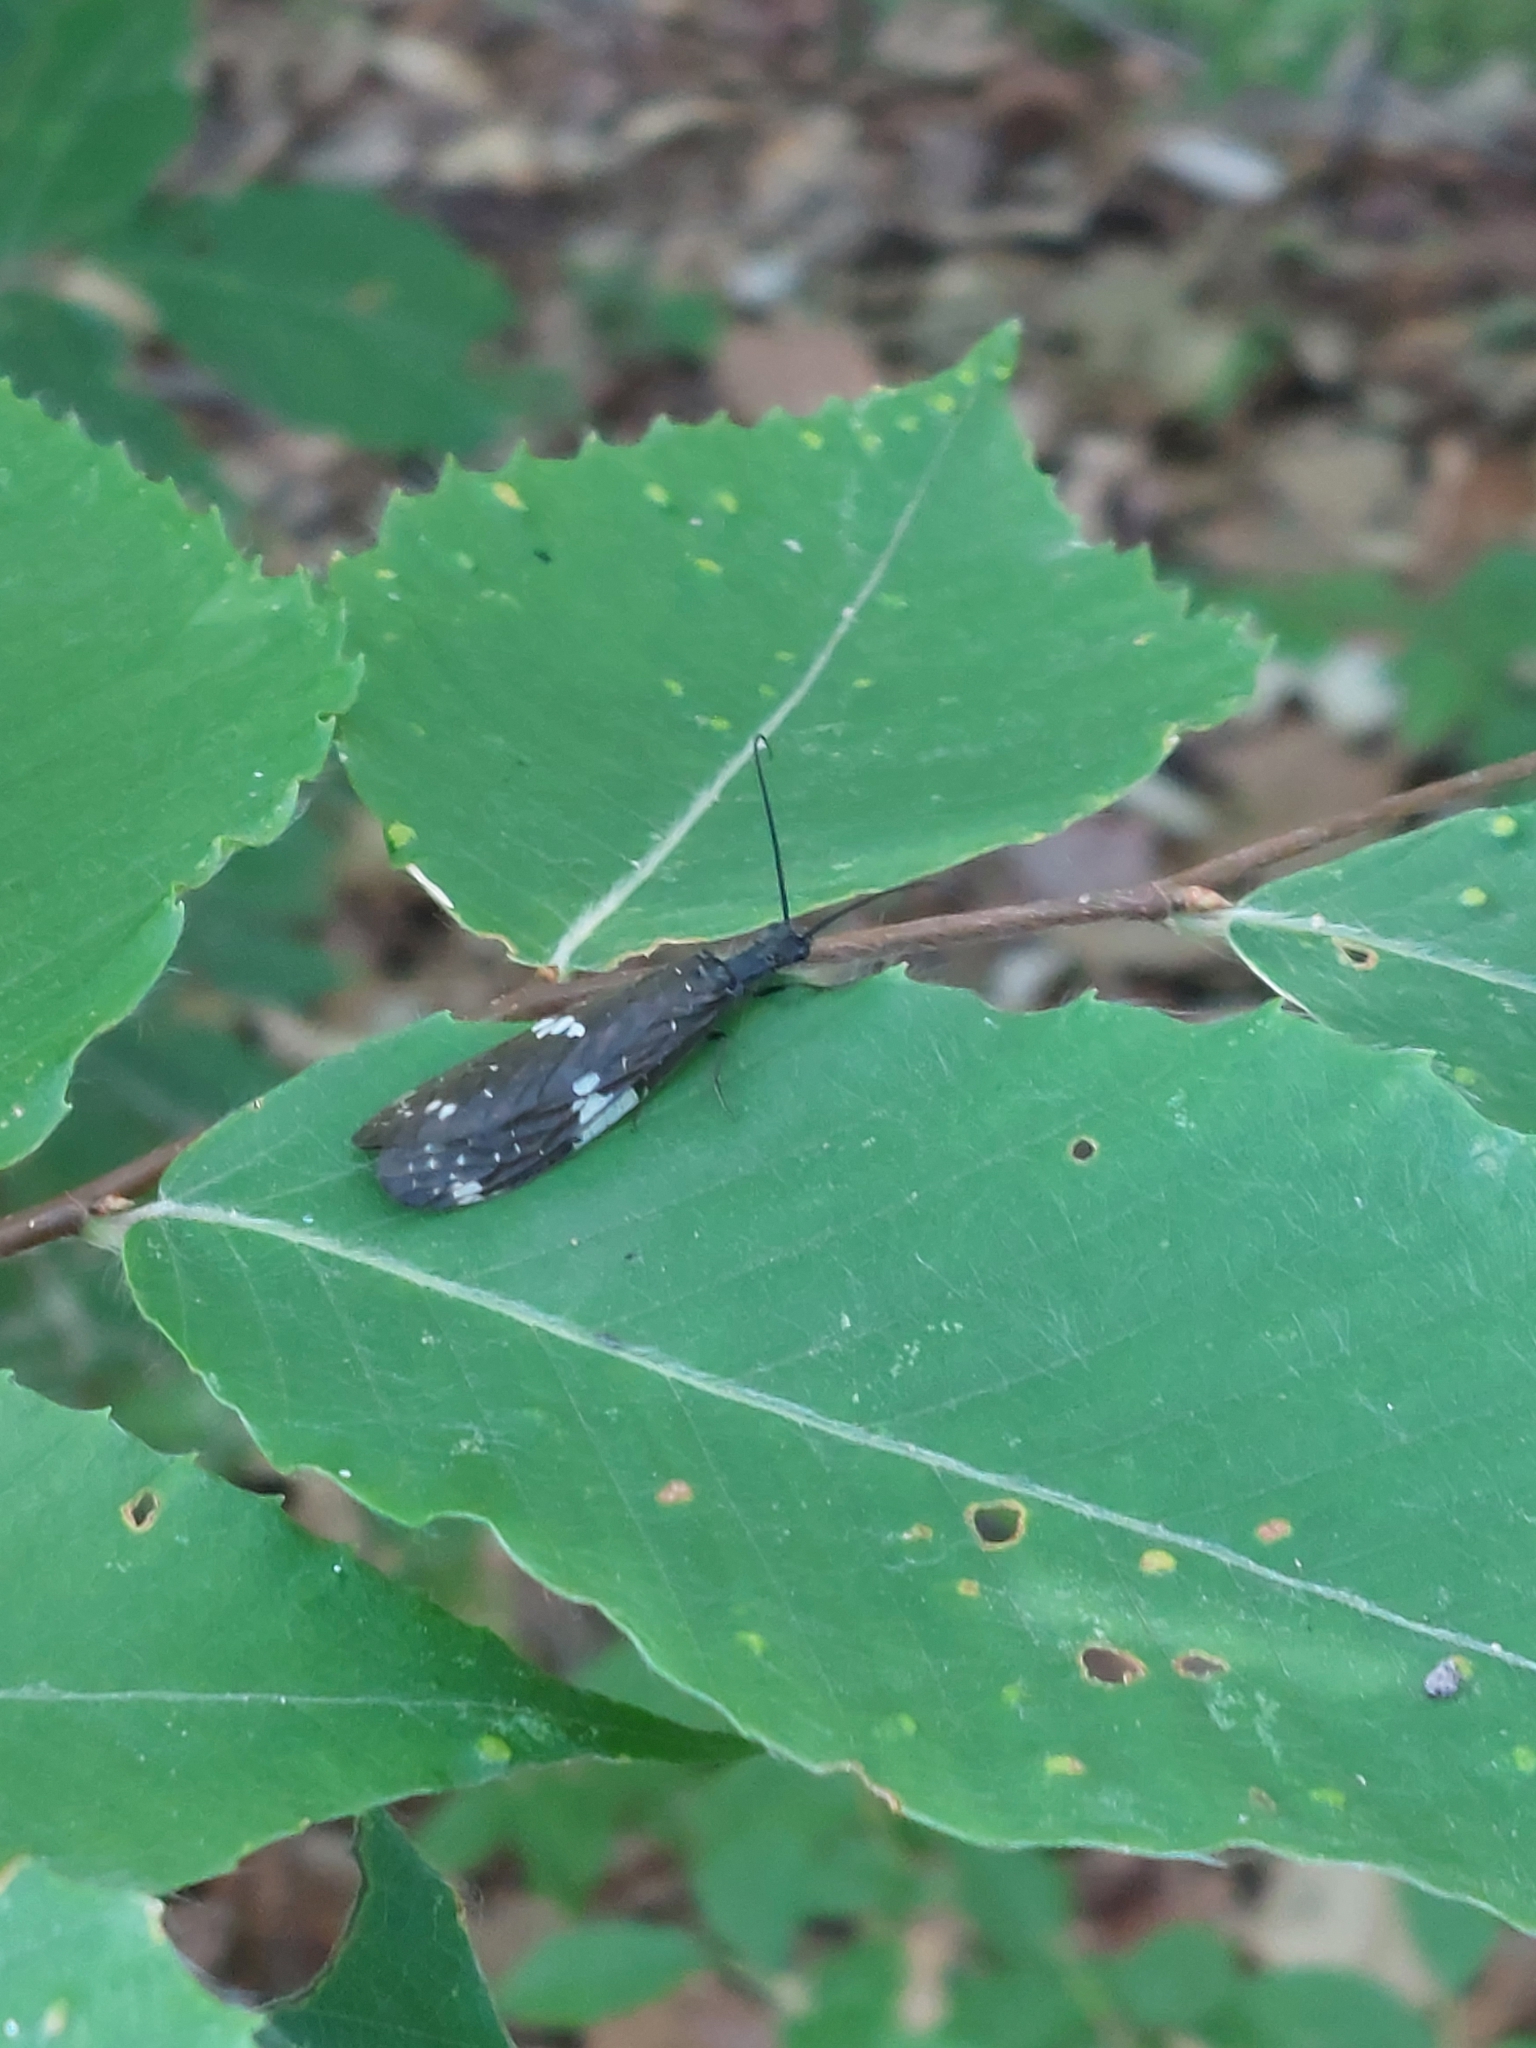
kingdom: Animalia
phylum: Arthropoda
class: Insecta
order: Megaloptera
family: Corydalidae
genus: Nigronia
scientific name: Nigronia serricornis
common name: Serrate dark fishfly
